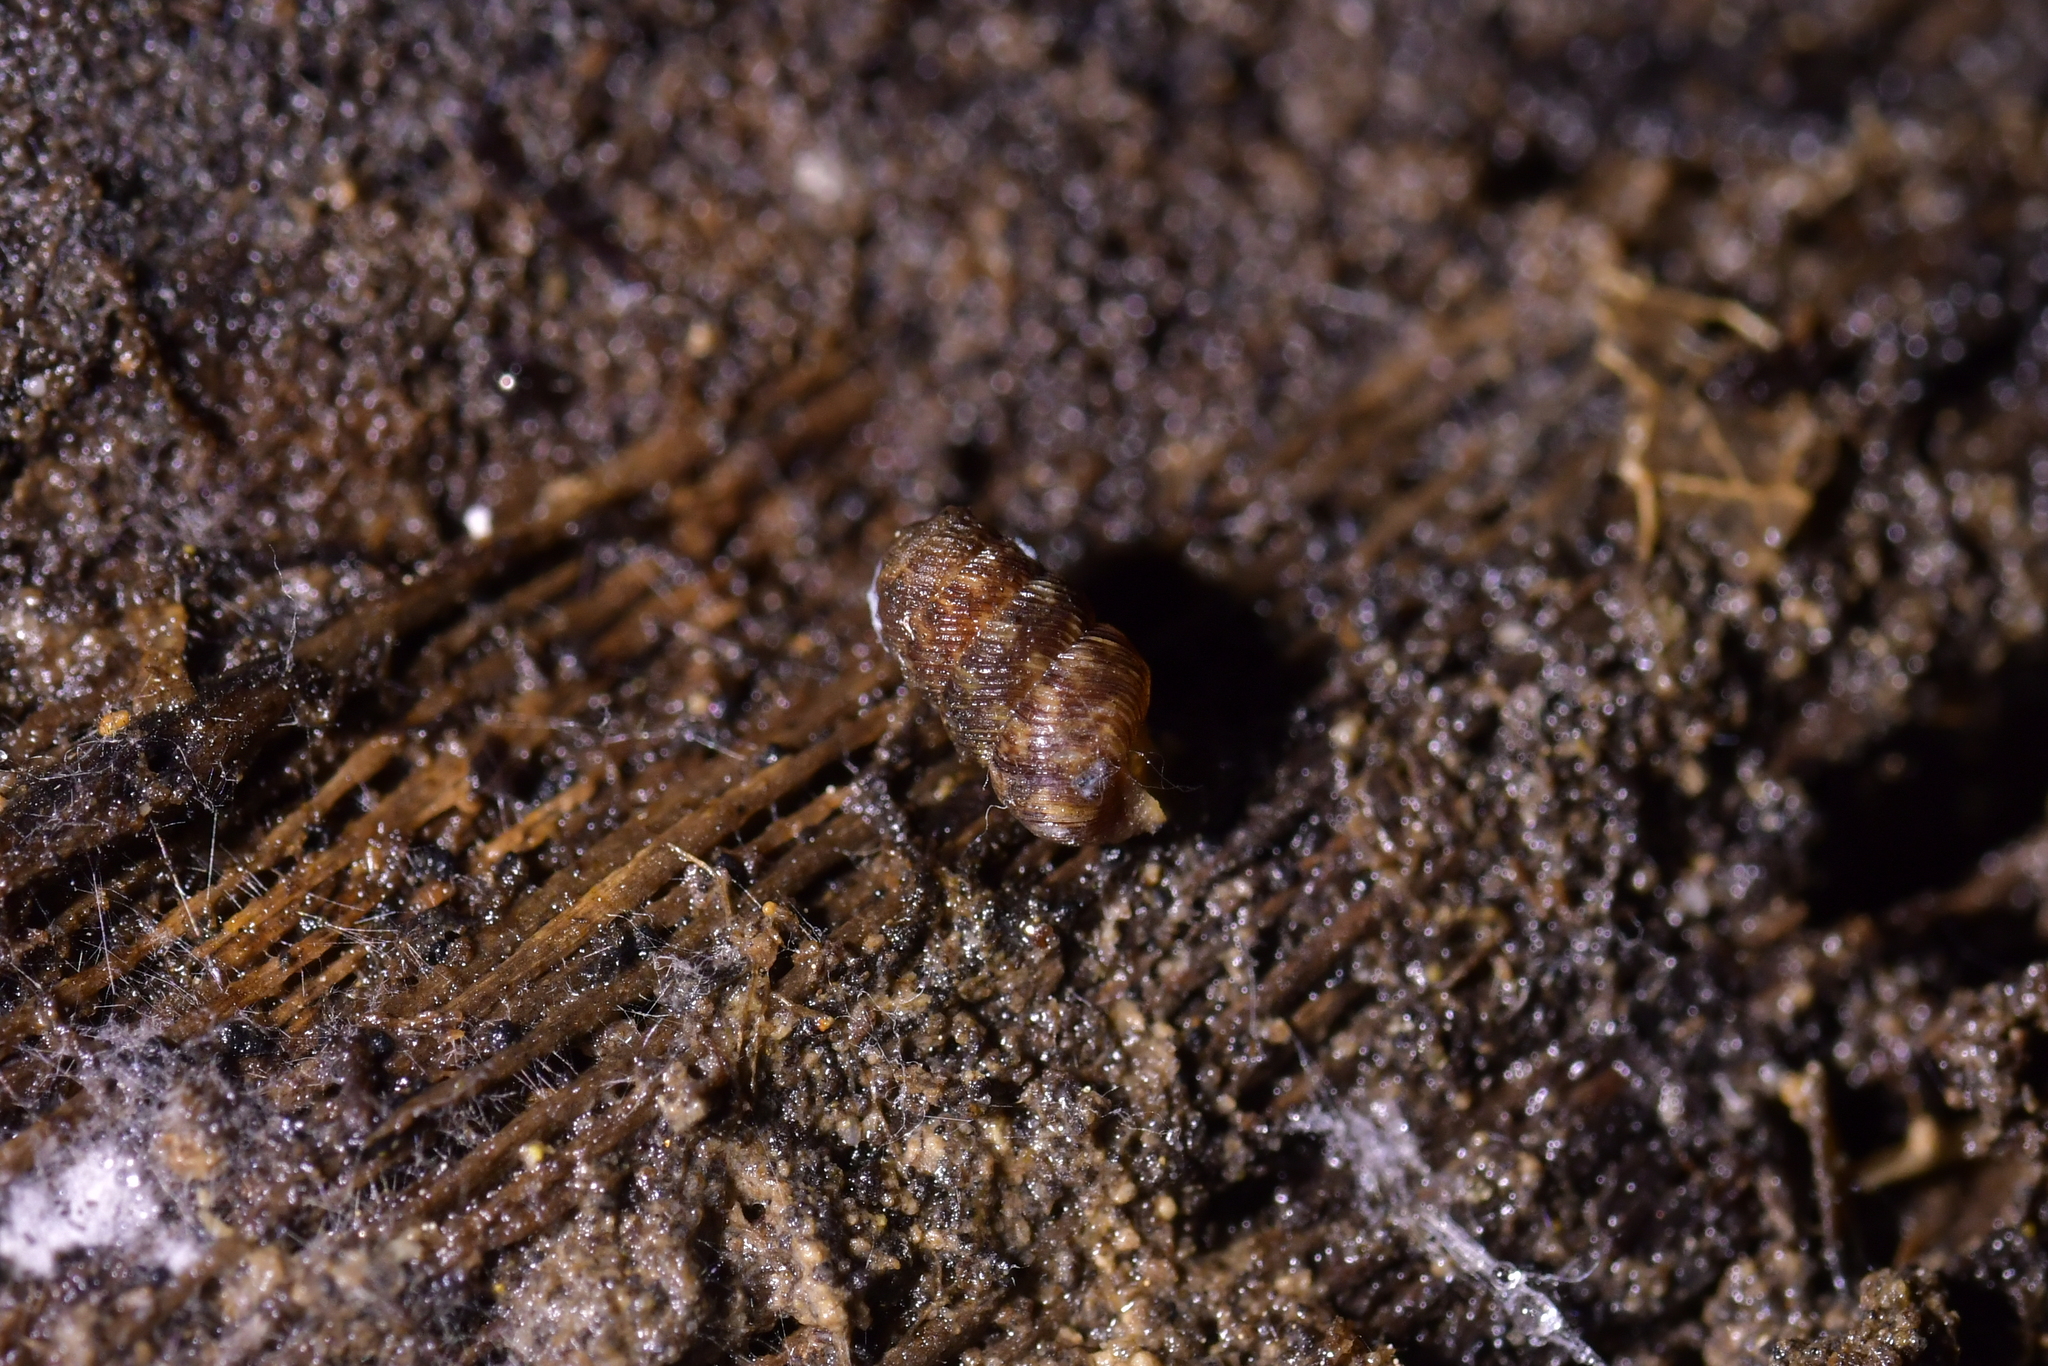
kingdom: Animalia
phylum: Mollusca
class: Gastropoda
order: Stylommatophora
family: Charopidae
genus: Phenacharopa
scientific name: Phenacharopa novoseelandica
